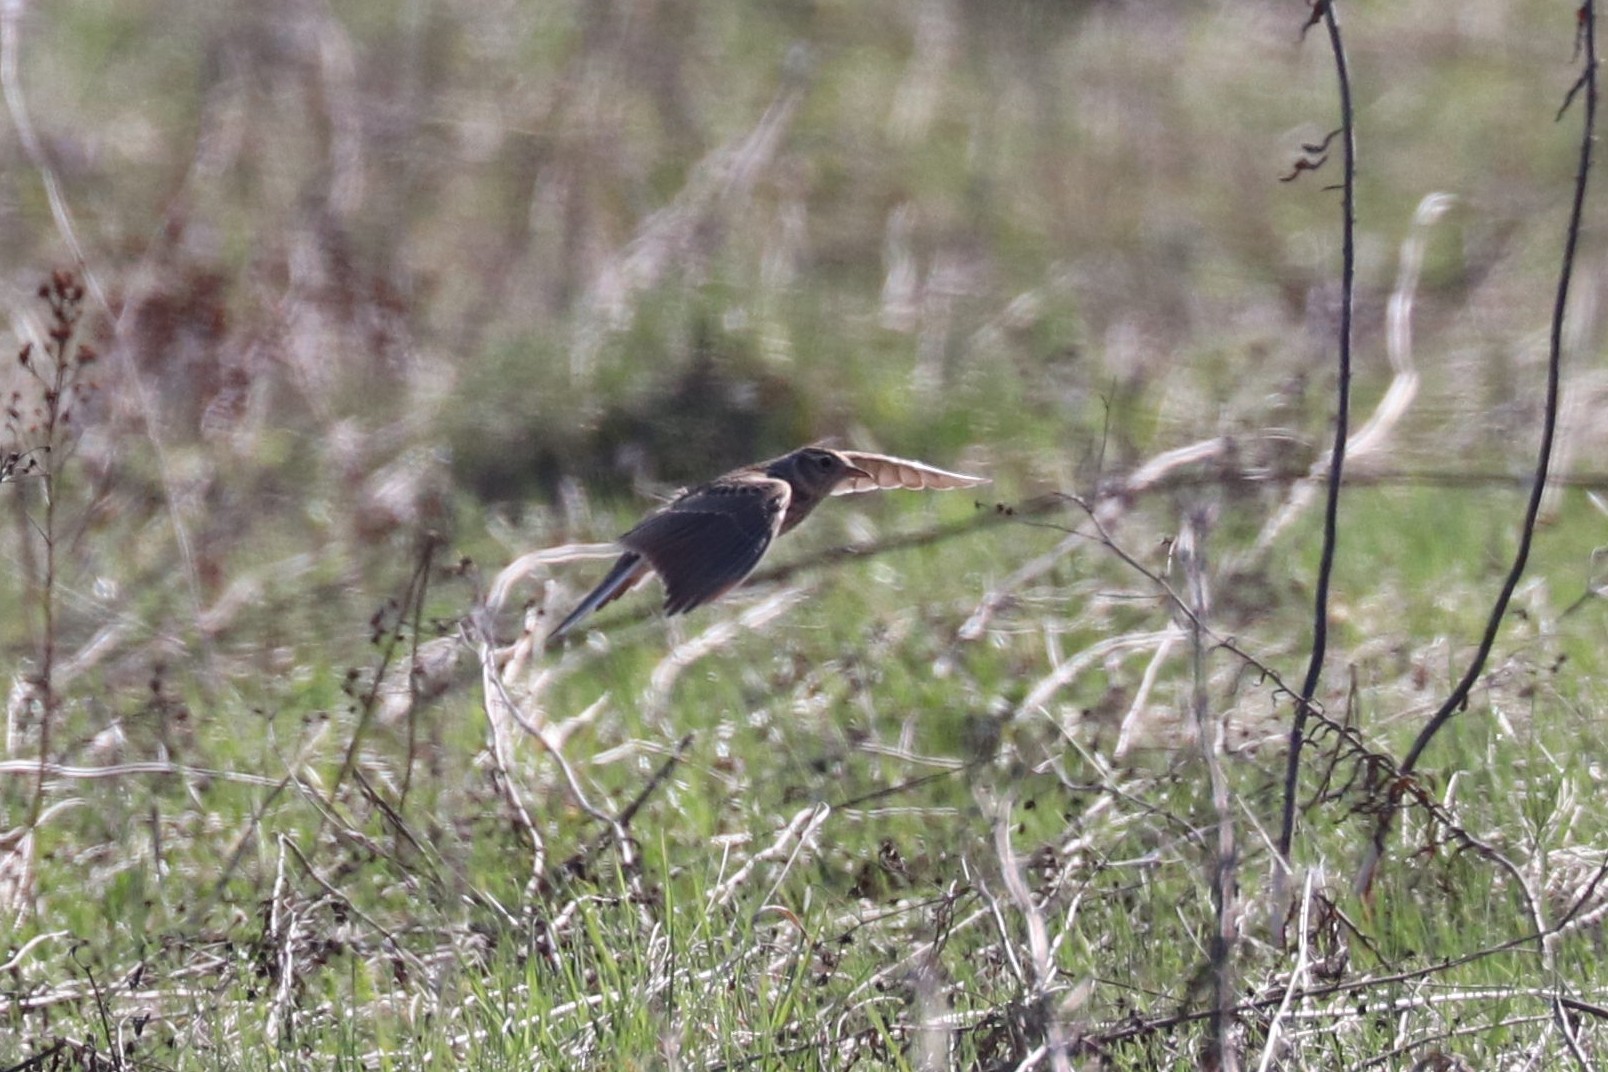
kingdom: Animalia
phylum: Chordata
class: Aves
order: Passeriformes
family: Alaudidae
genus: Alauda
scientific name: Alauda arvensis
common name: Eurasian skylark
